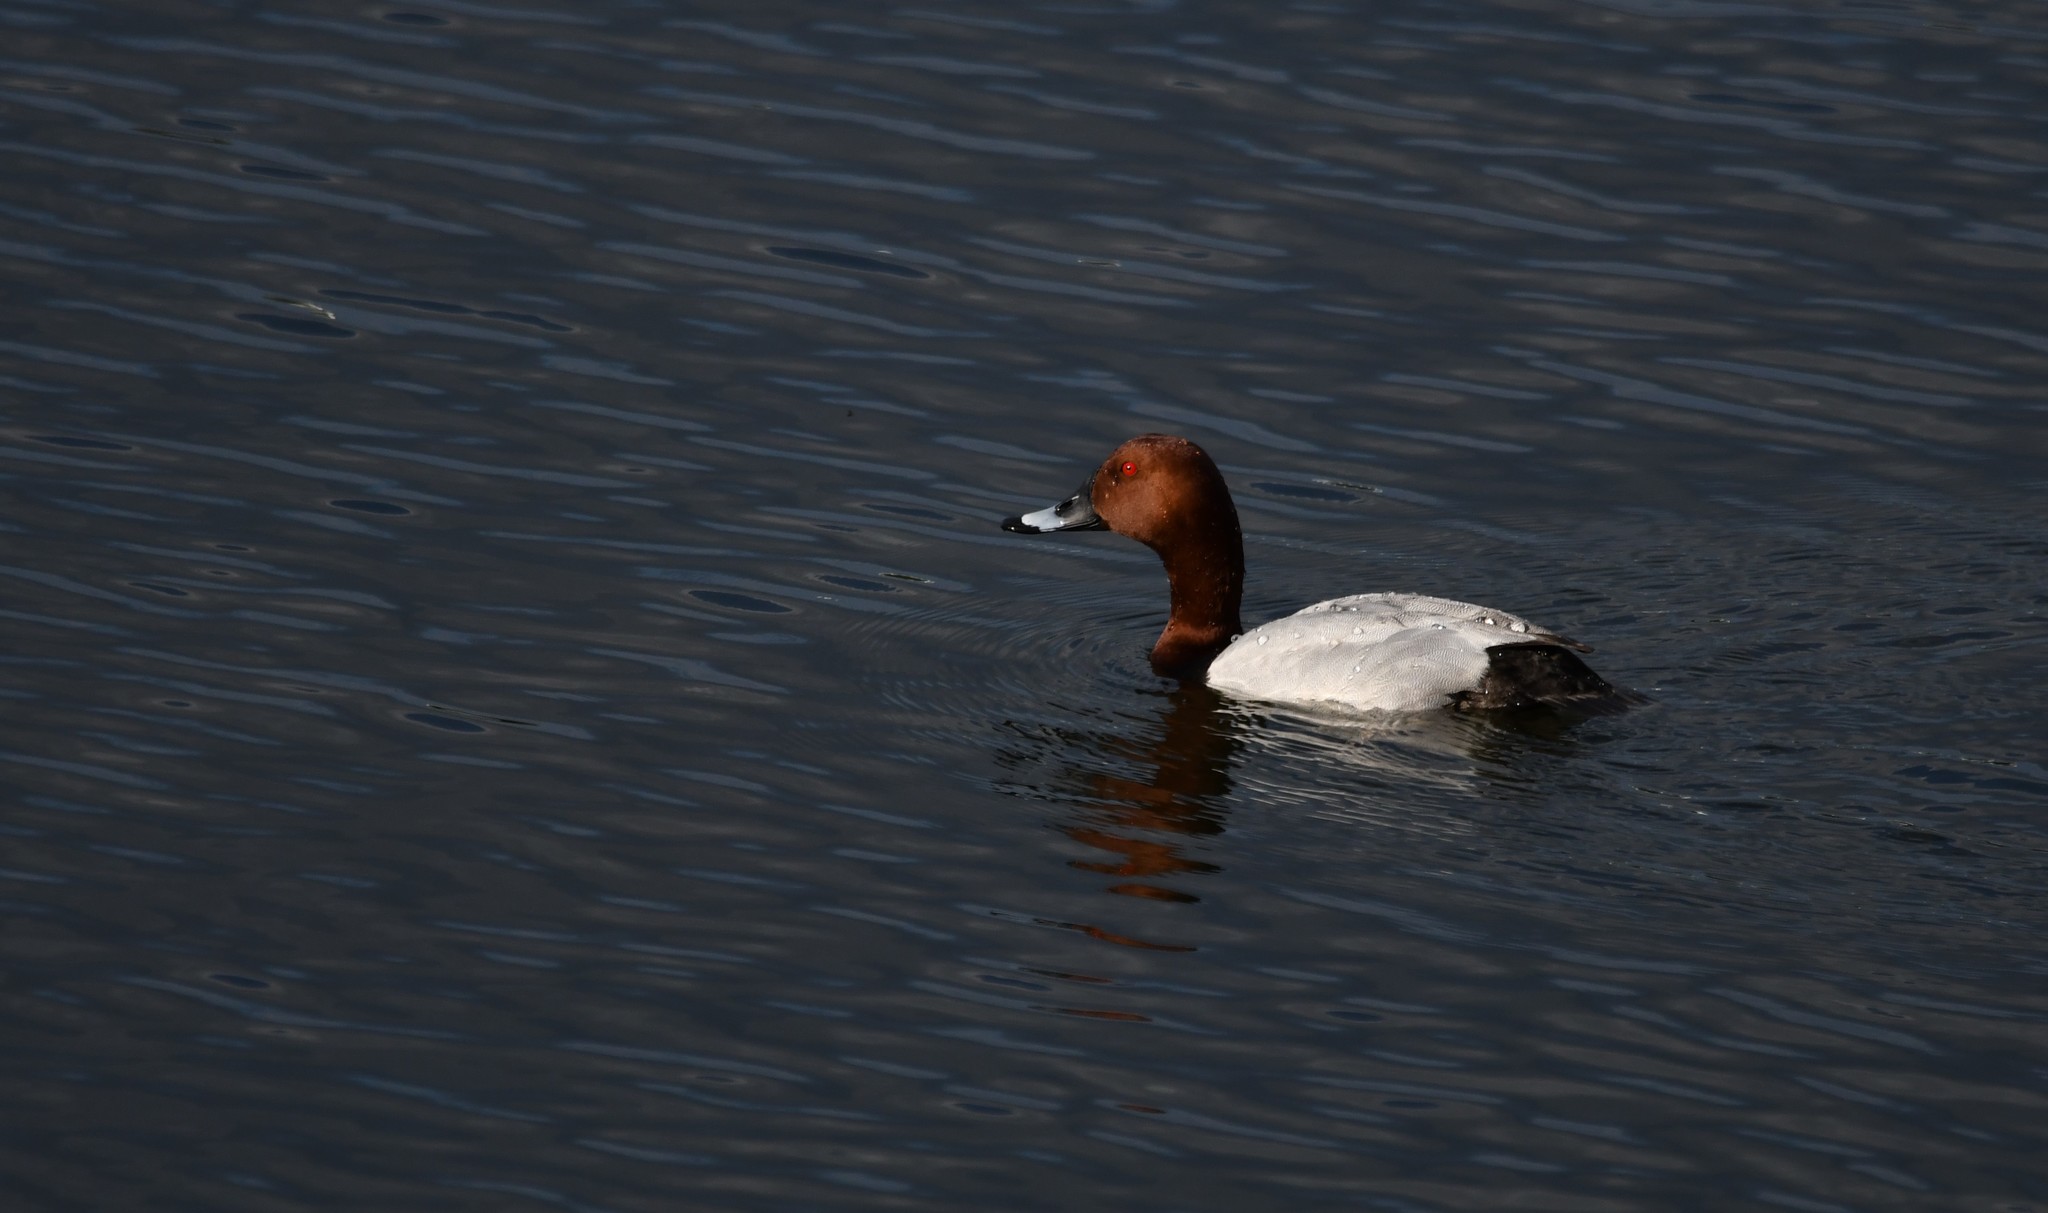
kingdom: Animalia
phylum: Chordata
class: Aves
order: Anseriformes
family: Anatidae
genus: Aythya
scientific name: Aythya ferina
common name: Common pochard
